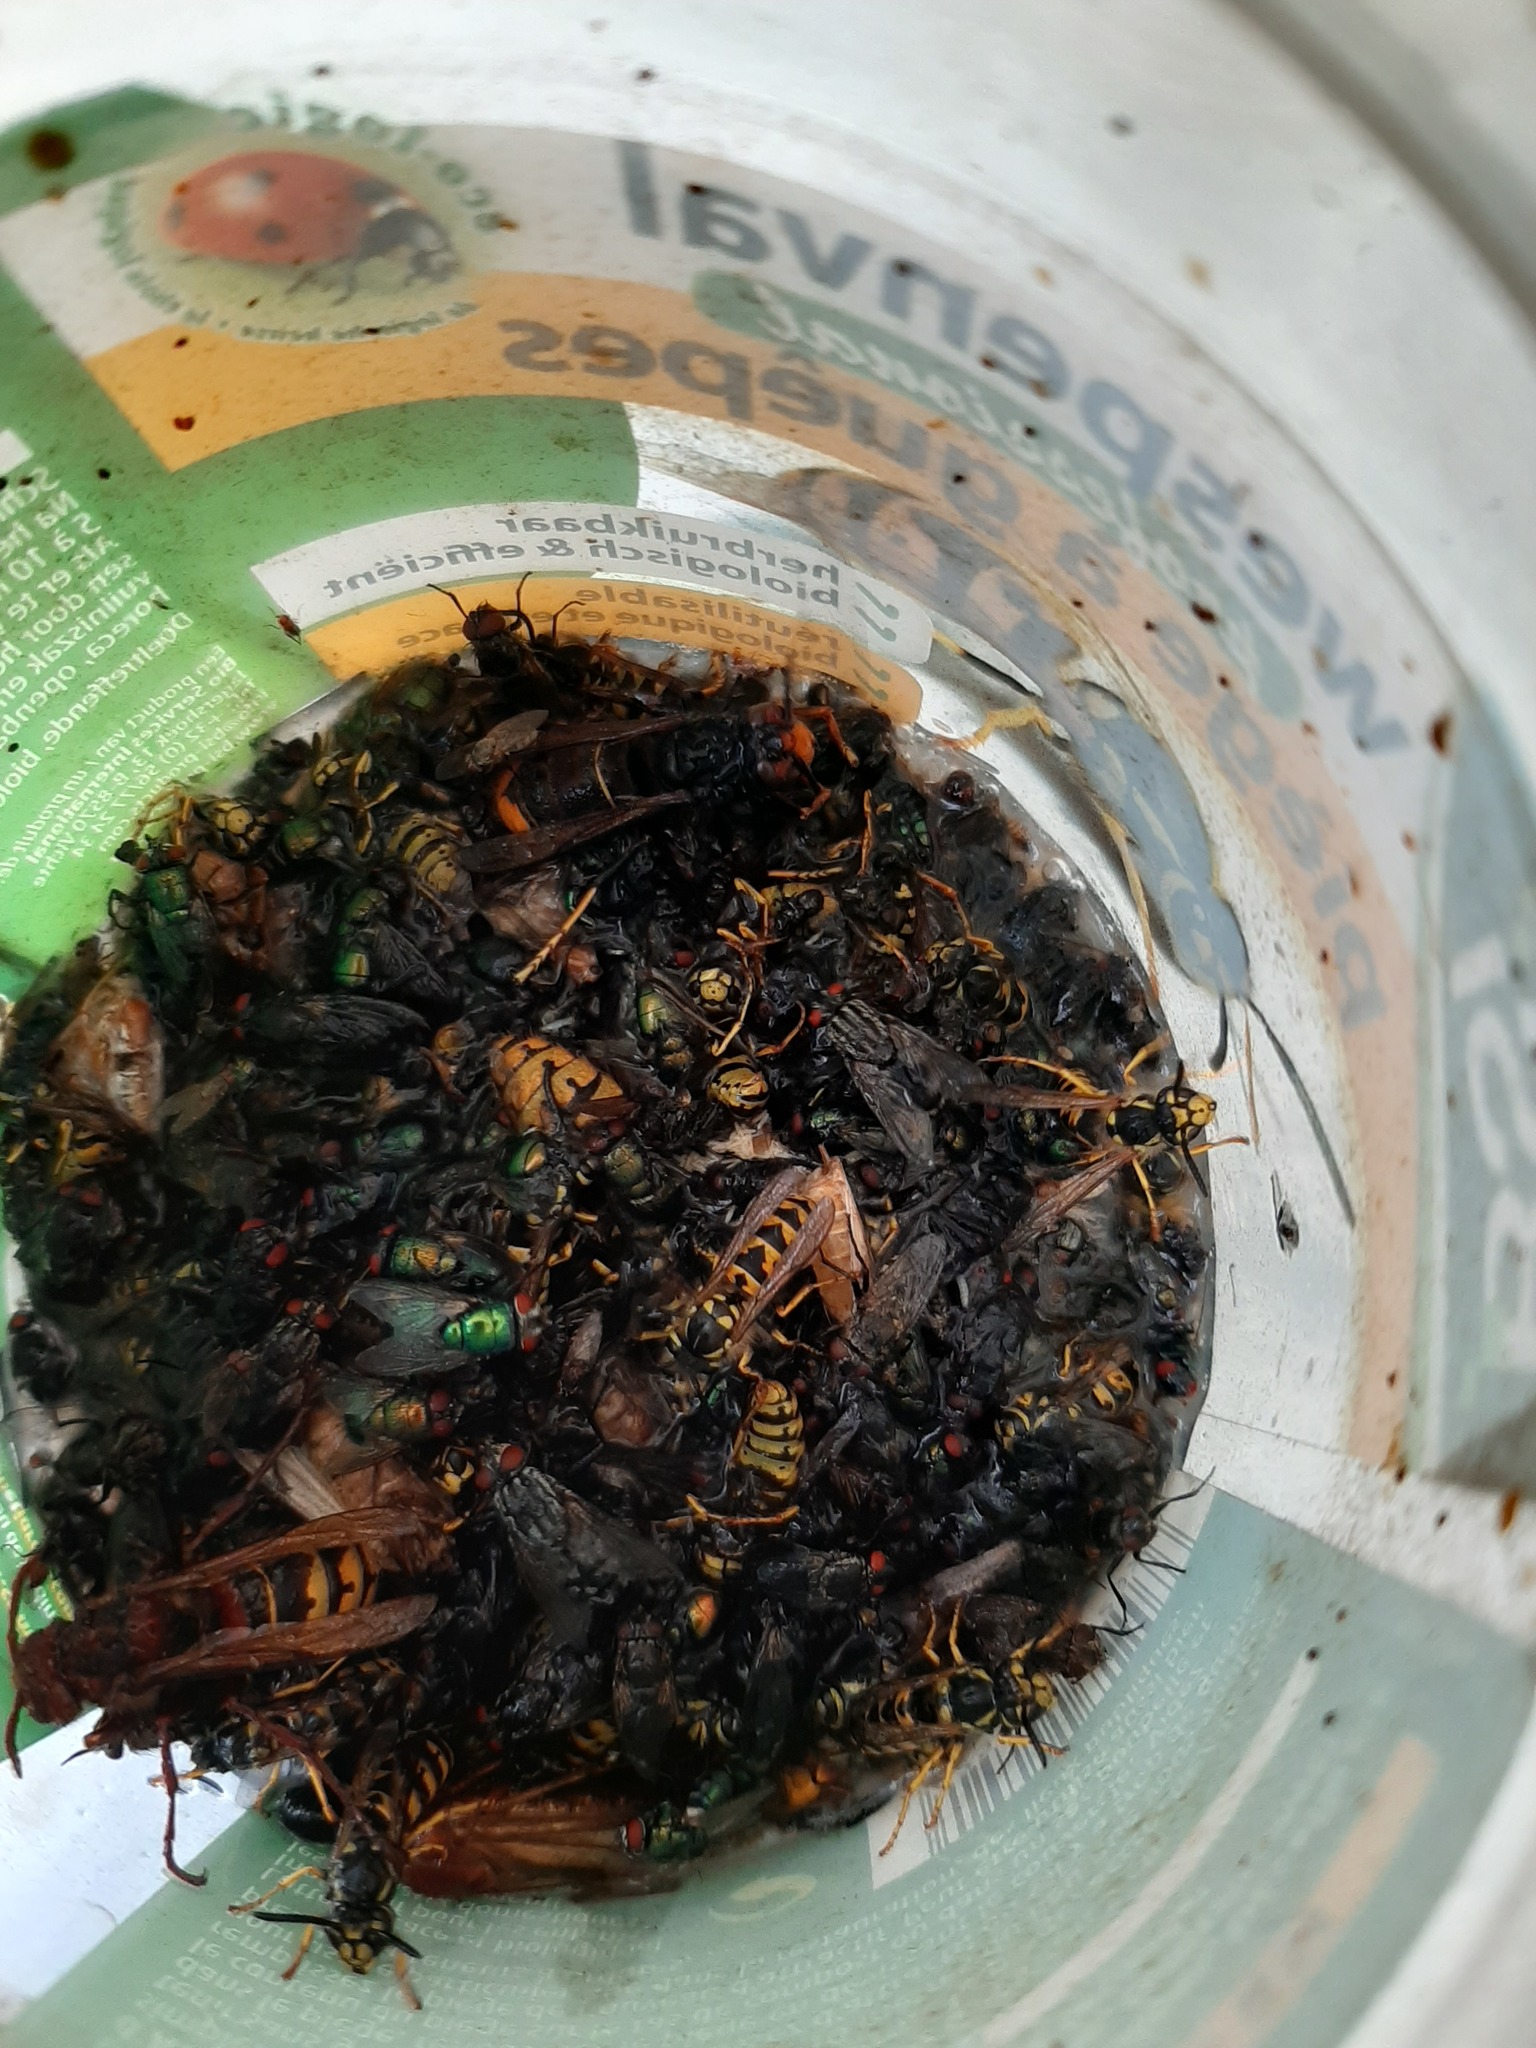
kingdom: Animalia
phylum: Arthropoda
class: Insecta
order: Hymenoptera
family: Vespidae
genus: Vespa
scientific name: Vespa velutina
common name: Asian hornet
